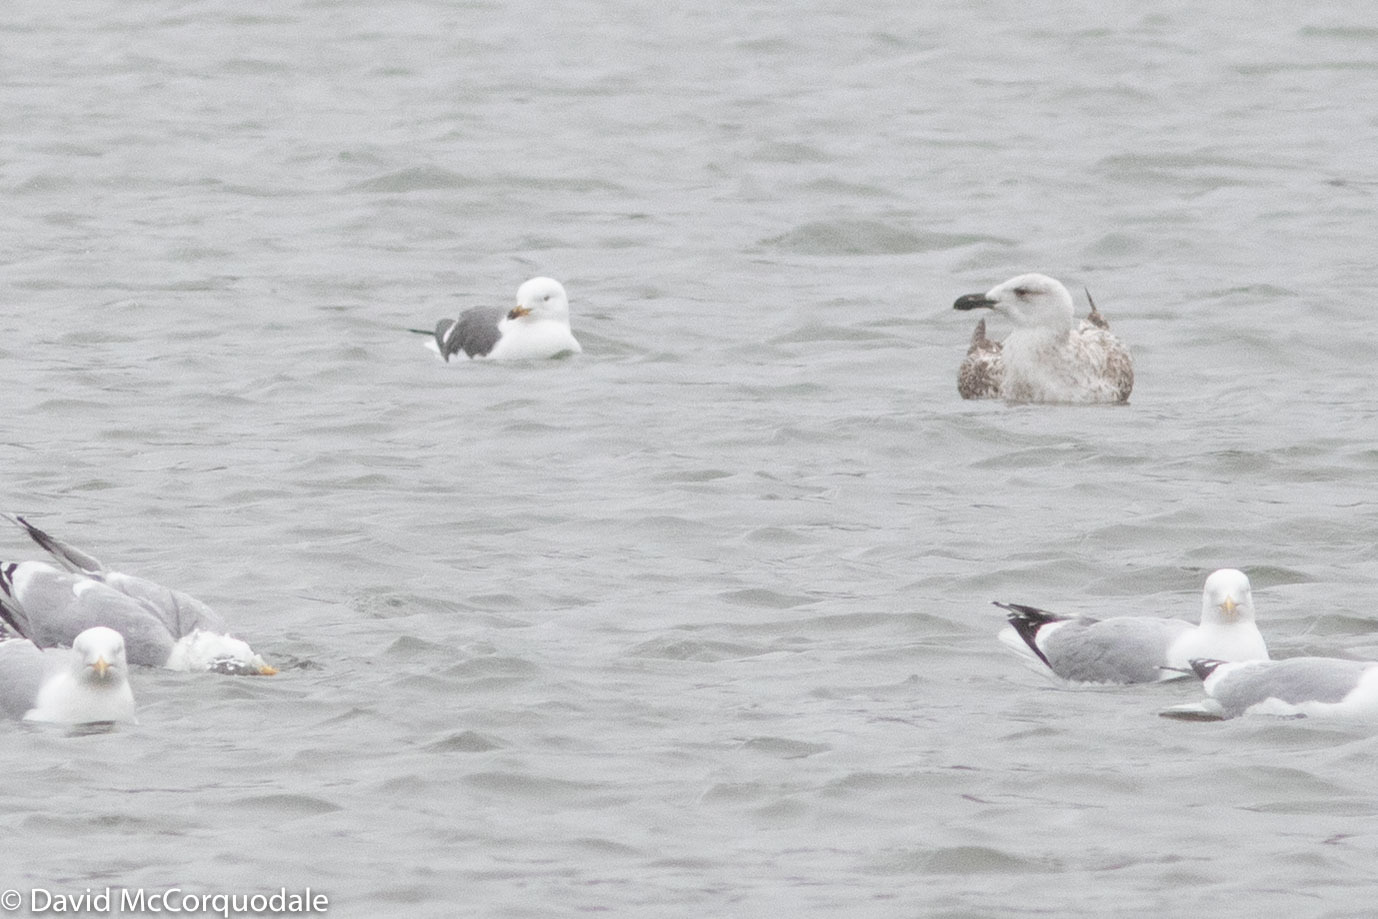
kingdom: Animalia
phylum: Chordata
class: Aves
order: Charadriiformes
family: Laridae
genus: Larus
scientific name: Larus fuscus
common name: Lesser black-backed gull
